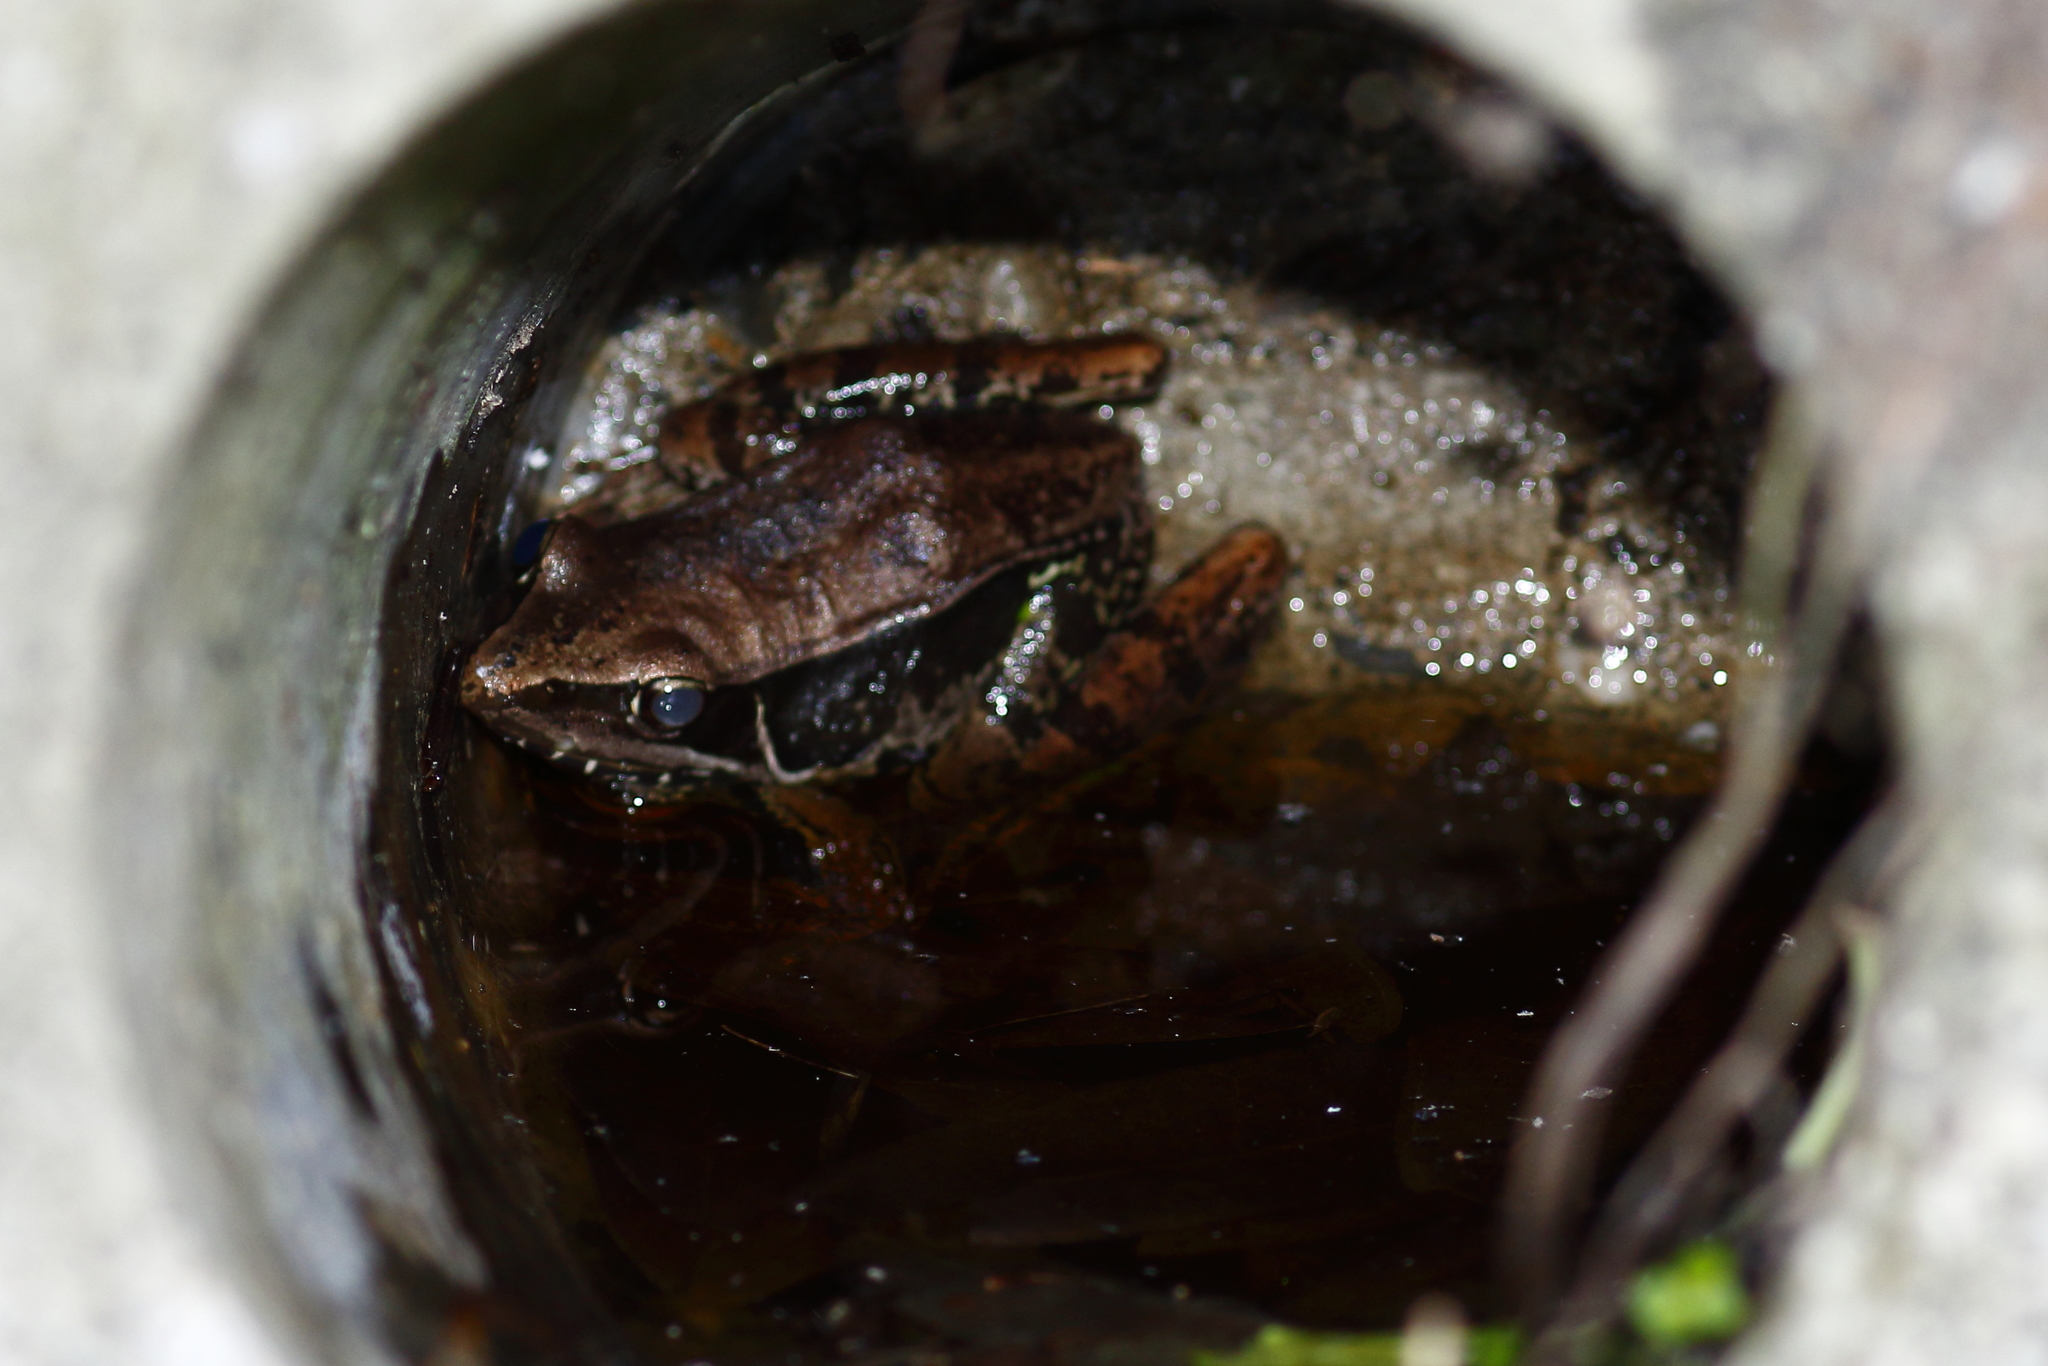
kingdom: Animalia
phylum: Chordata
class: Amphibia
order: Anura
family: Ranidae
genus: Sylvirana
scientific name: Sylvirana guentheri
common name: Guenther's amoy frog
